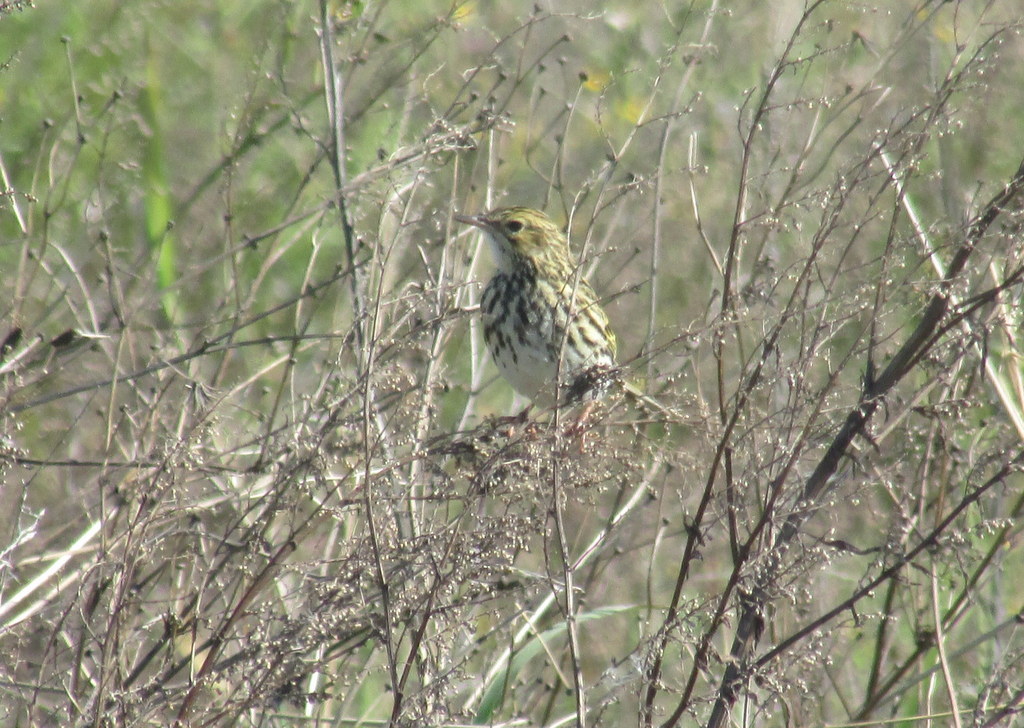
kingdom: Animalia
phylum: Chordata
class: Aves
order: Passeriformes
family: Motacillidae
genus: Anthus
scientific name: Anthus correndera
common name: Correndera pipit
